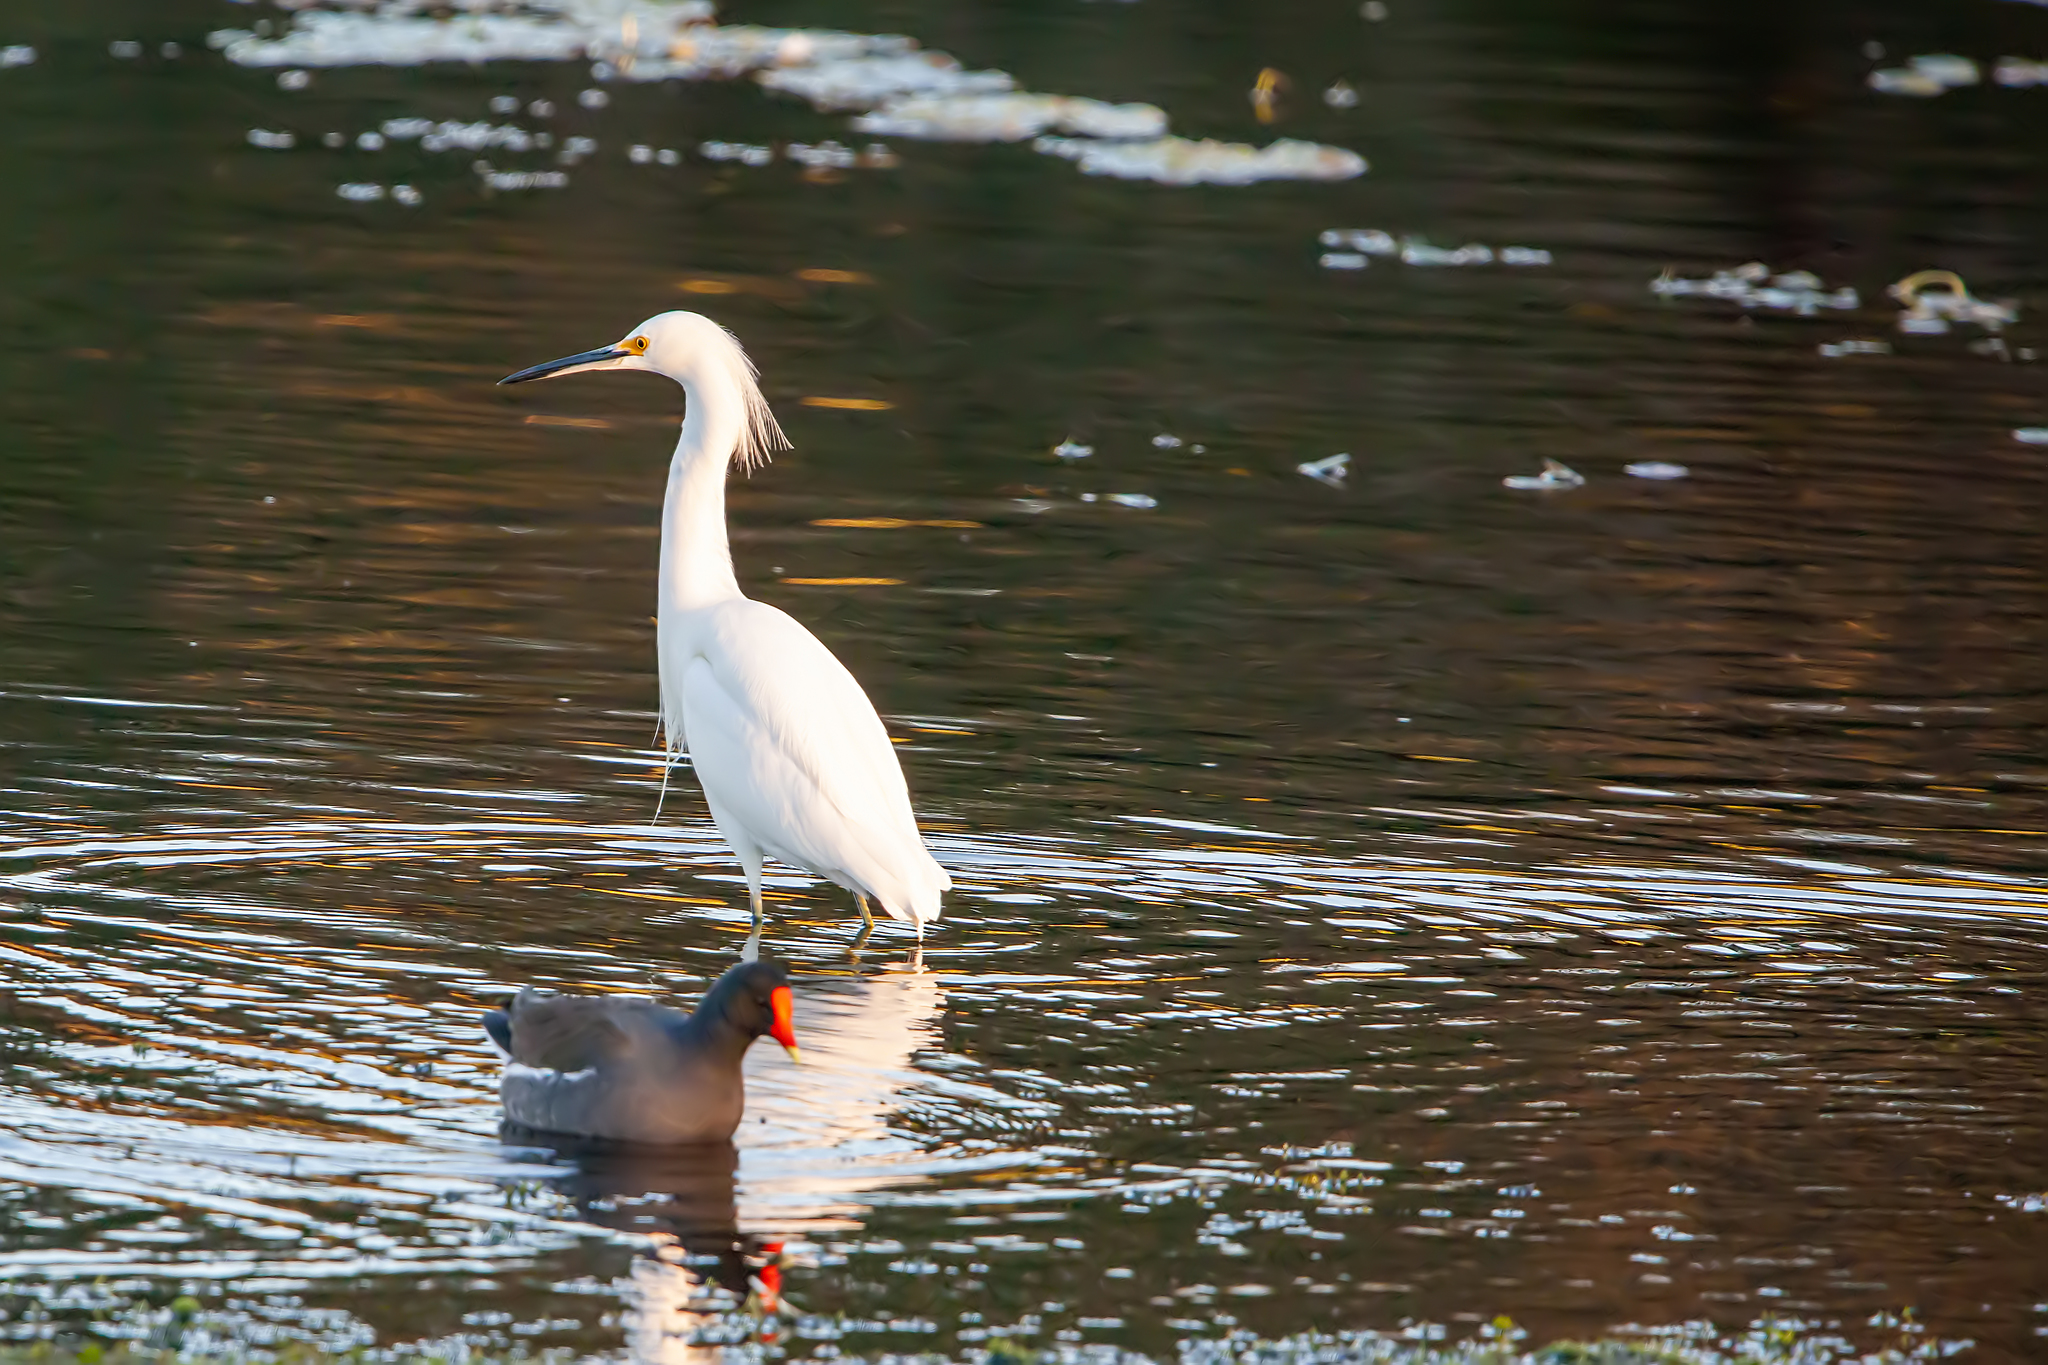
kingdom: Animalia
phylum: Chordata
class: Aves
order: Pelecaniformes
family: Ardeidae
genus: Egretta
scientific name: Egretta thula
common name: Snowy egret
